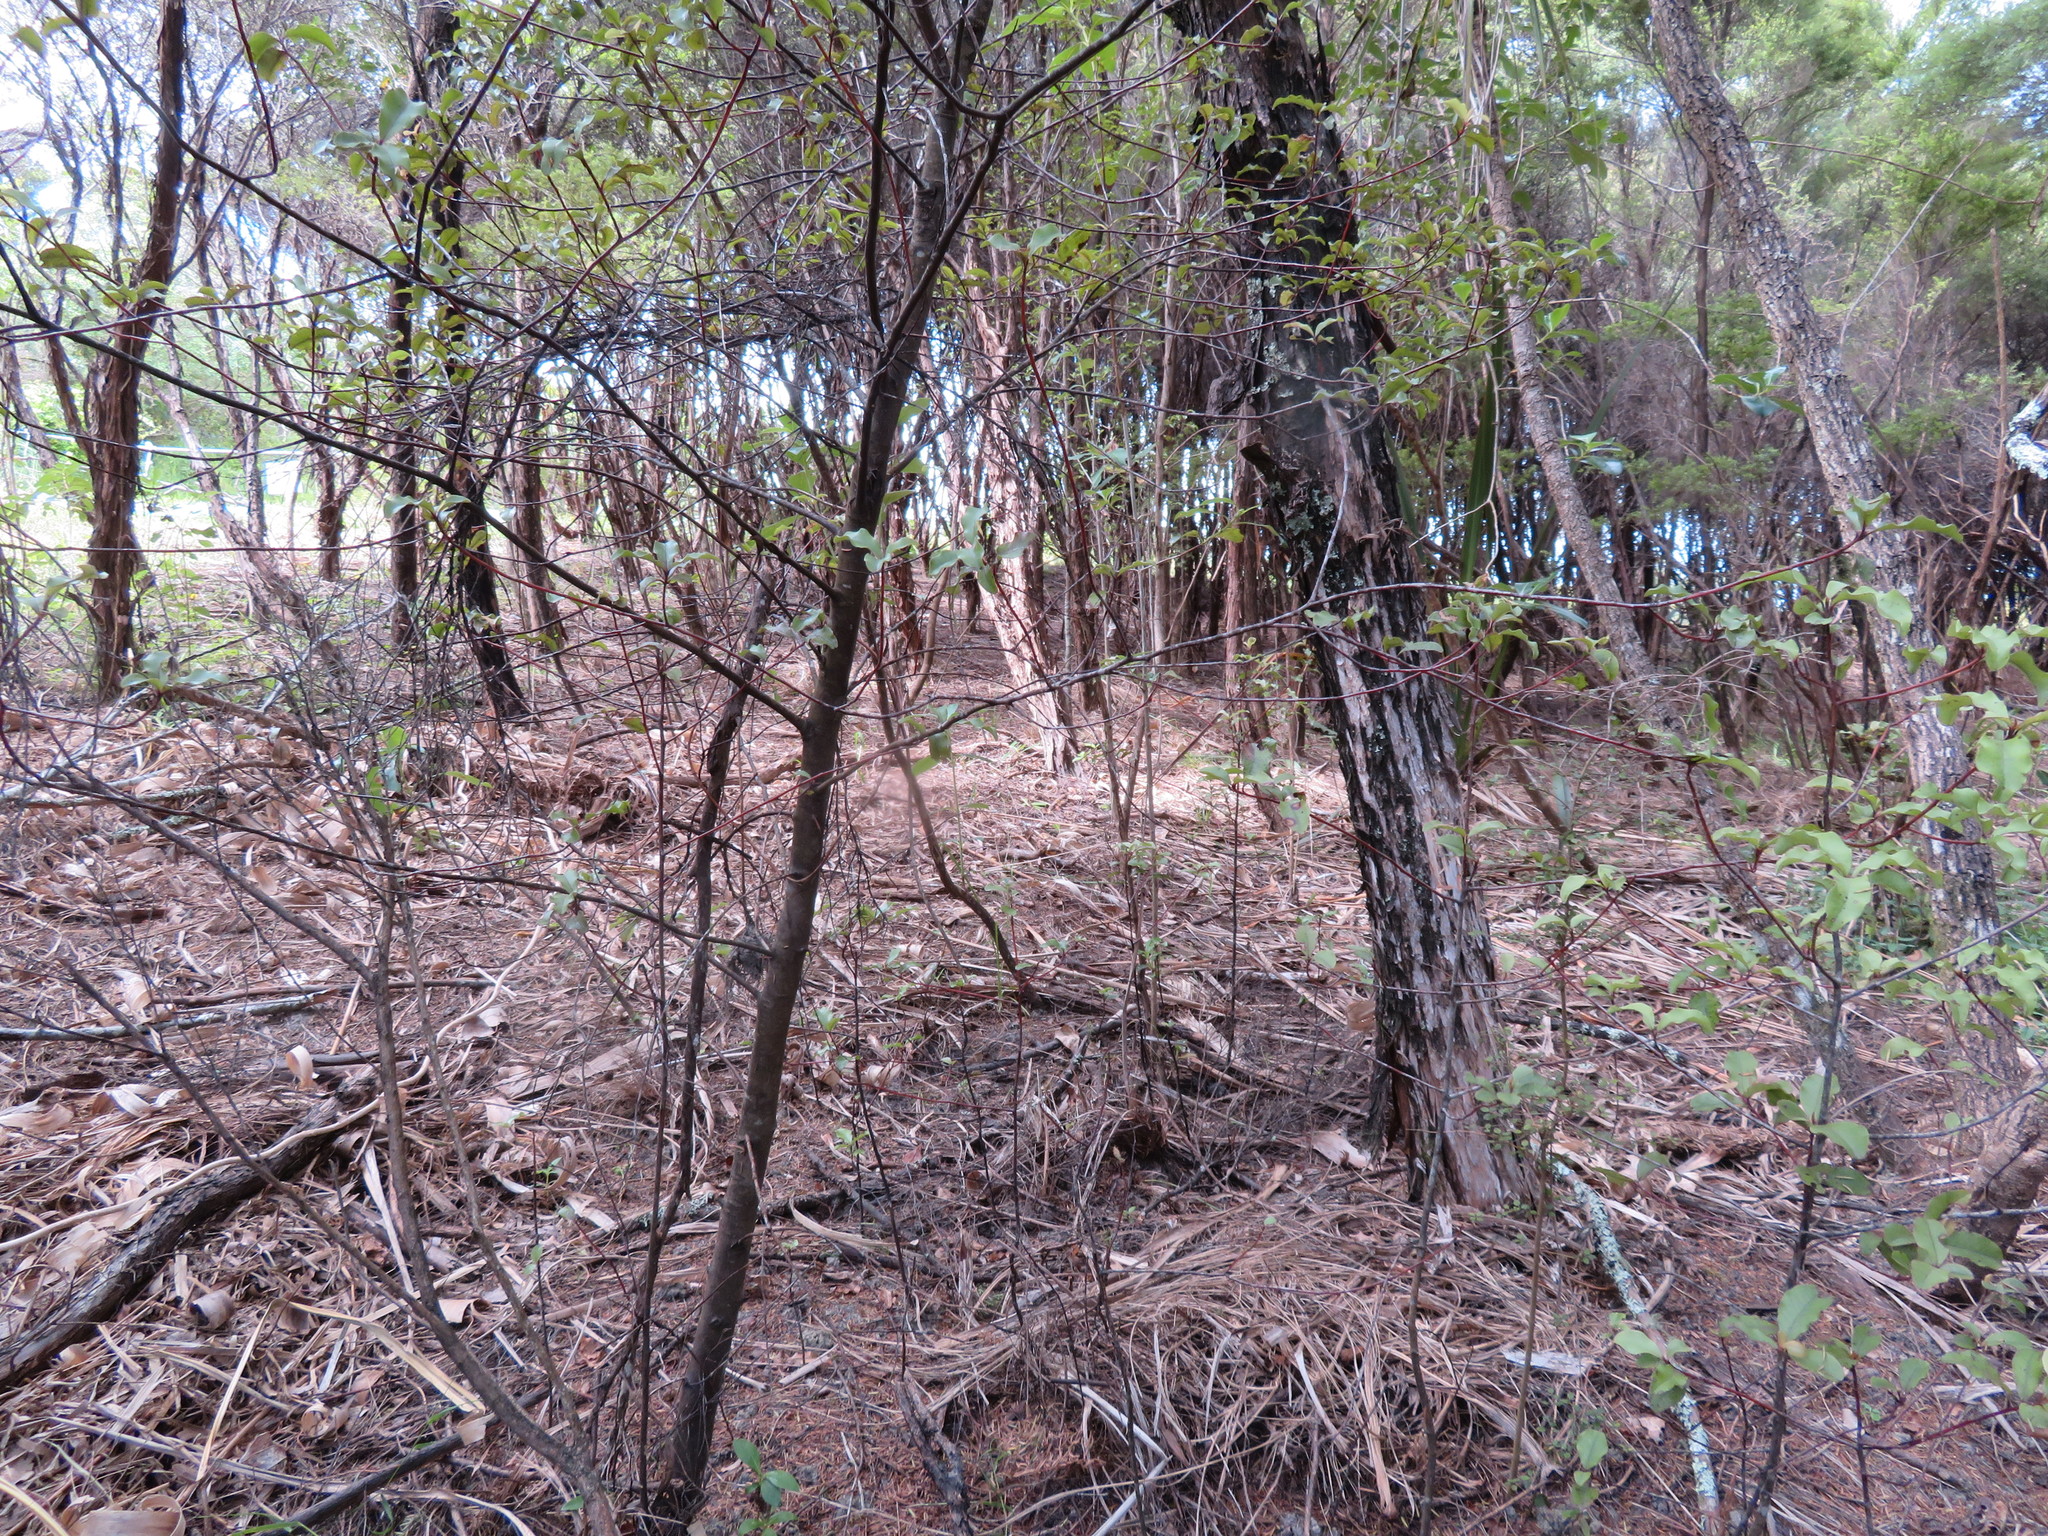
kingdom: Plantae
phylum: Tracheophyta
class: Liliopsida
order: Poales
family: Poaceae
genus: Cortaderia
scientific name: Cortaderia selloana
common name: Uruguayan pampas grass
